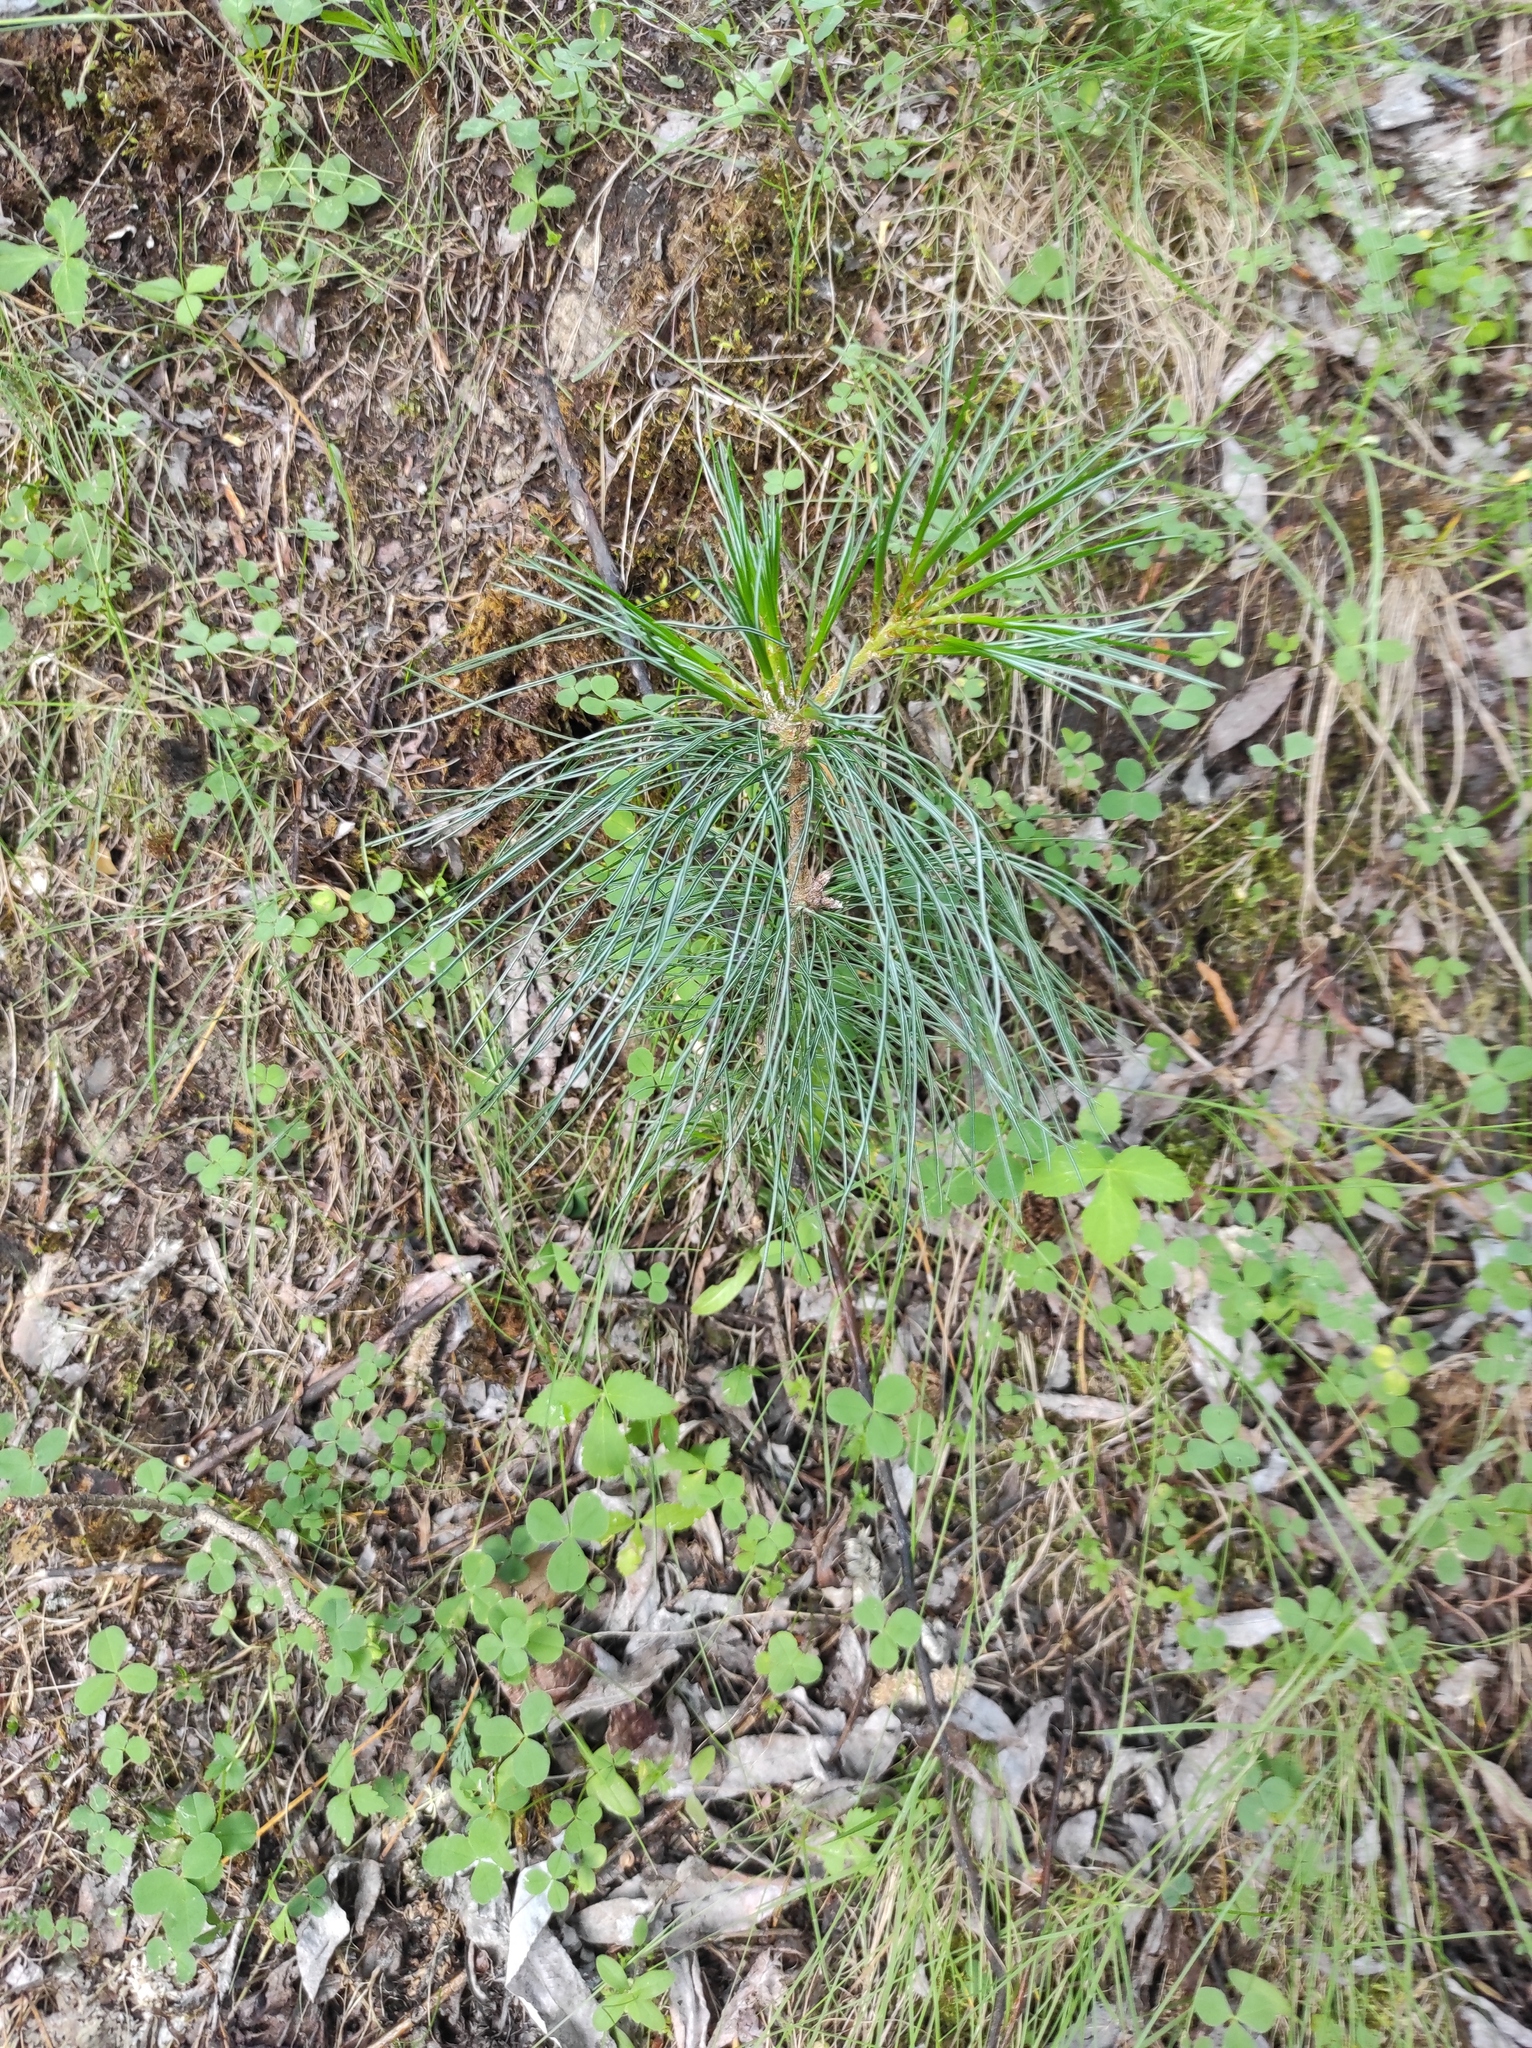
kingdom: Plantae
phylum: Tracheophyta
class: Pinopsida
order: Pinales
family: Pinaceae
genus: Pinus
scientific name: Pinus pumila
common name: Dwarf siberian pine
